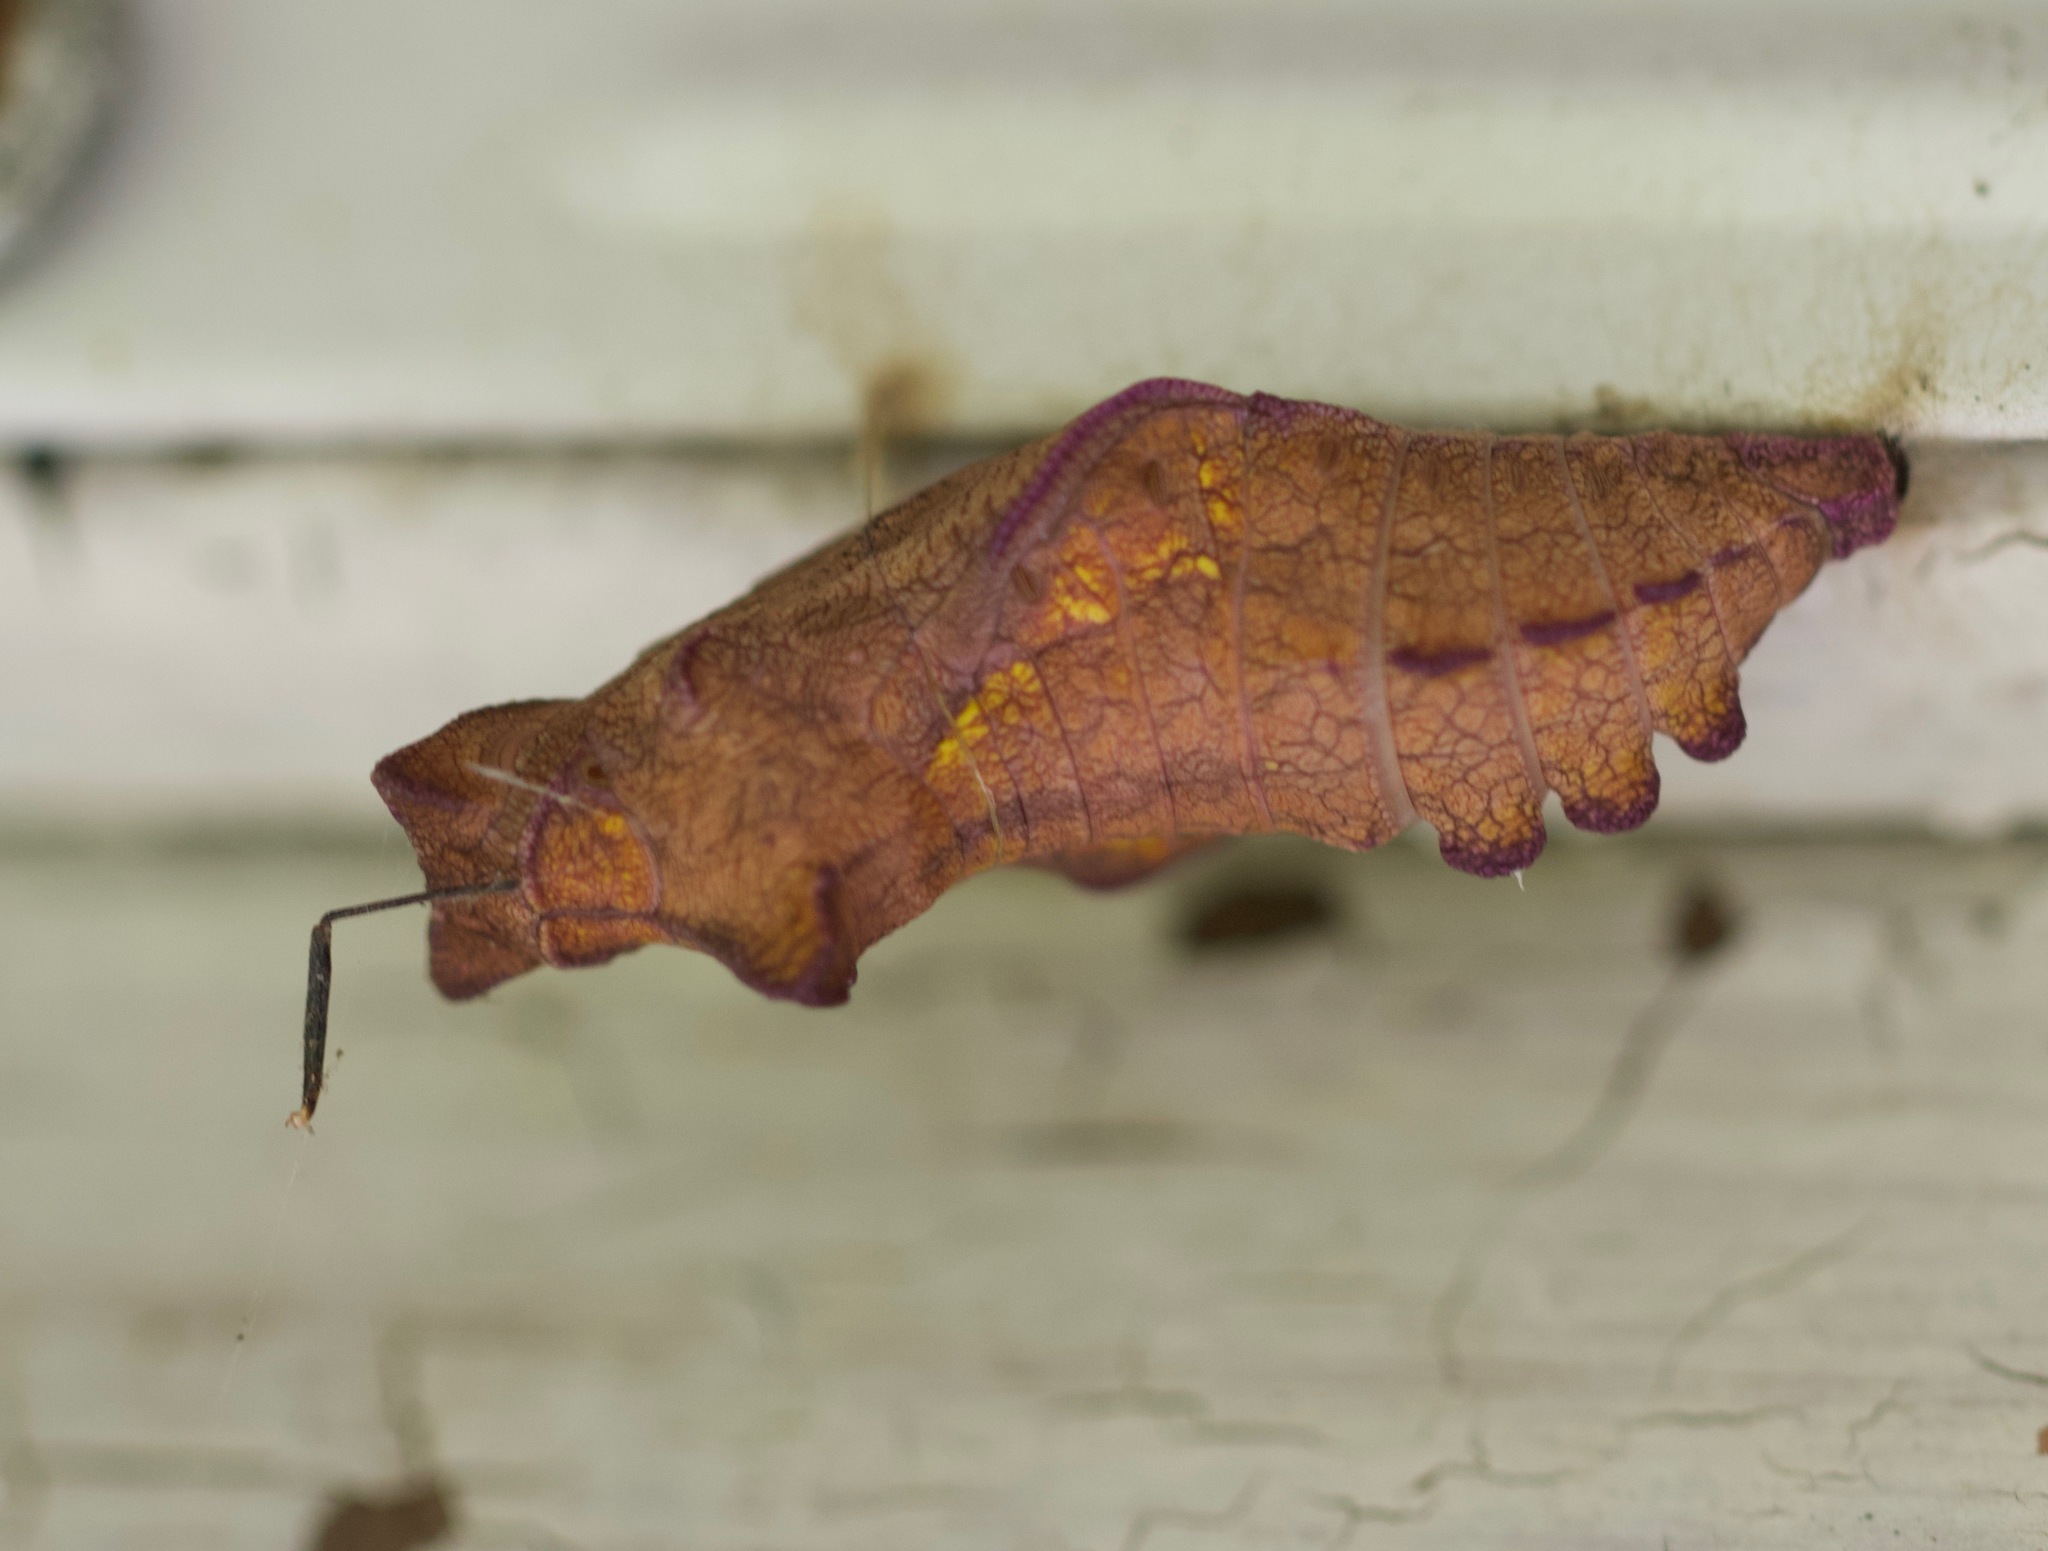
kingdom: Animalia
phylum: Arthropoda
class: Insecta
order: Lepidoptera
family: Papilionidae
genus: Battus
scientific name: Battus philenor
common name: Pipevine swallowtail
